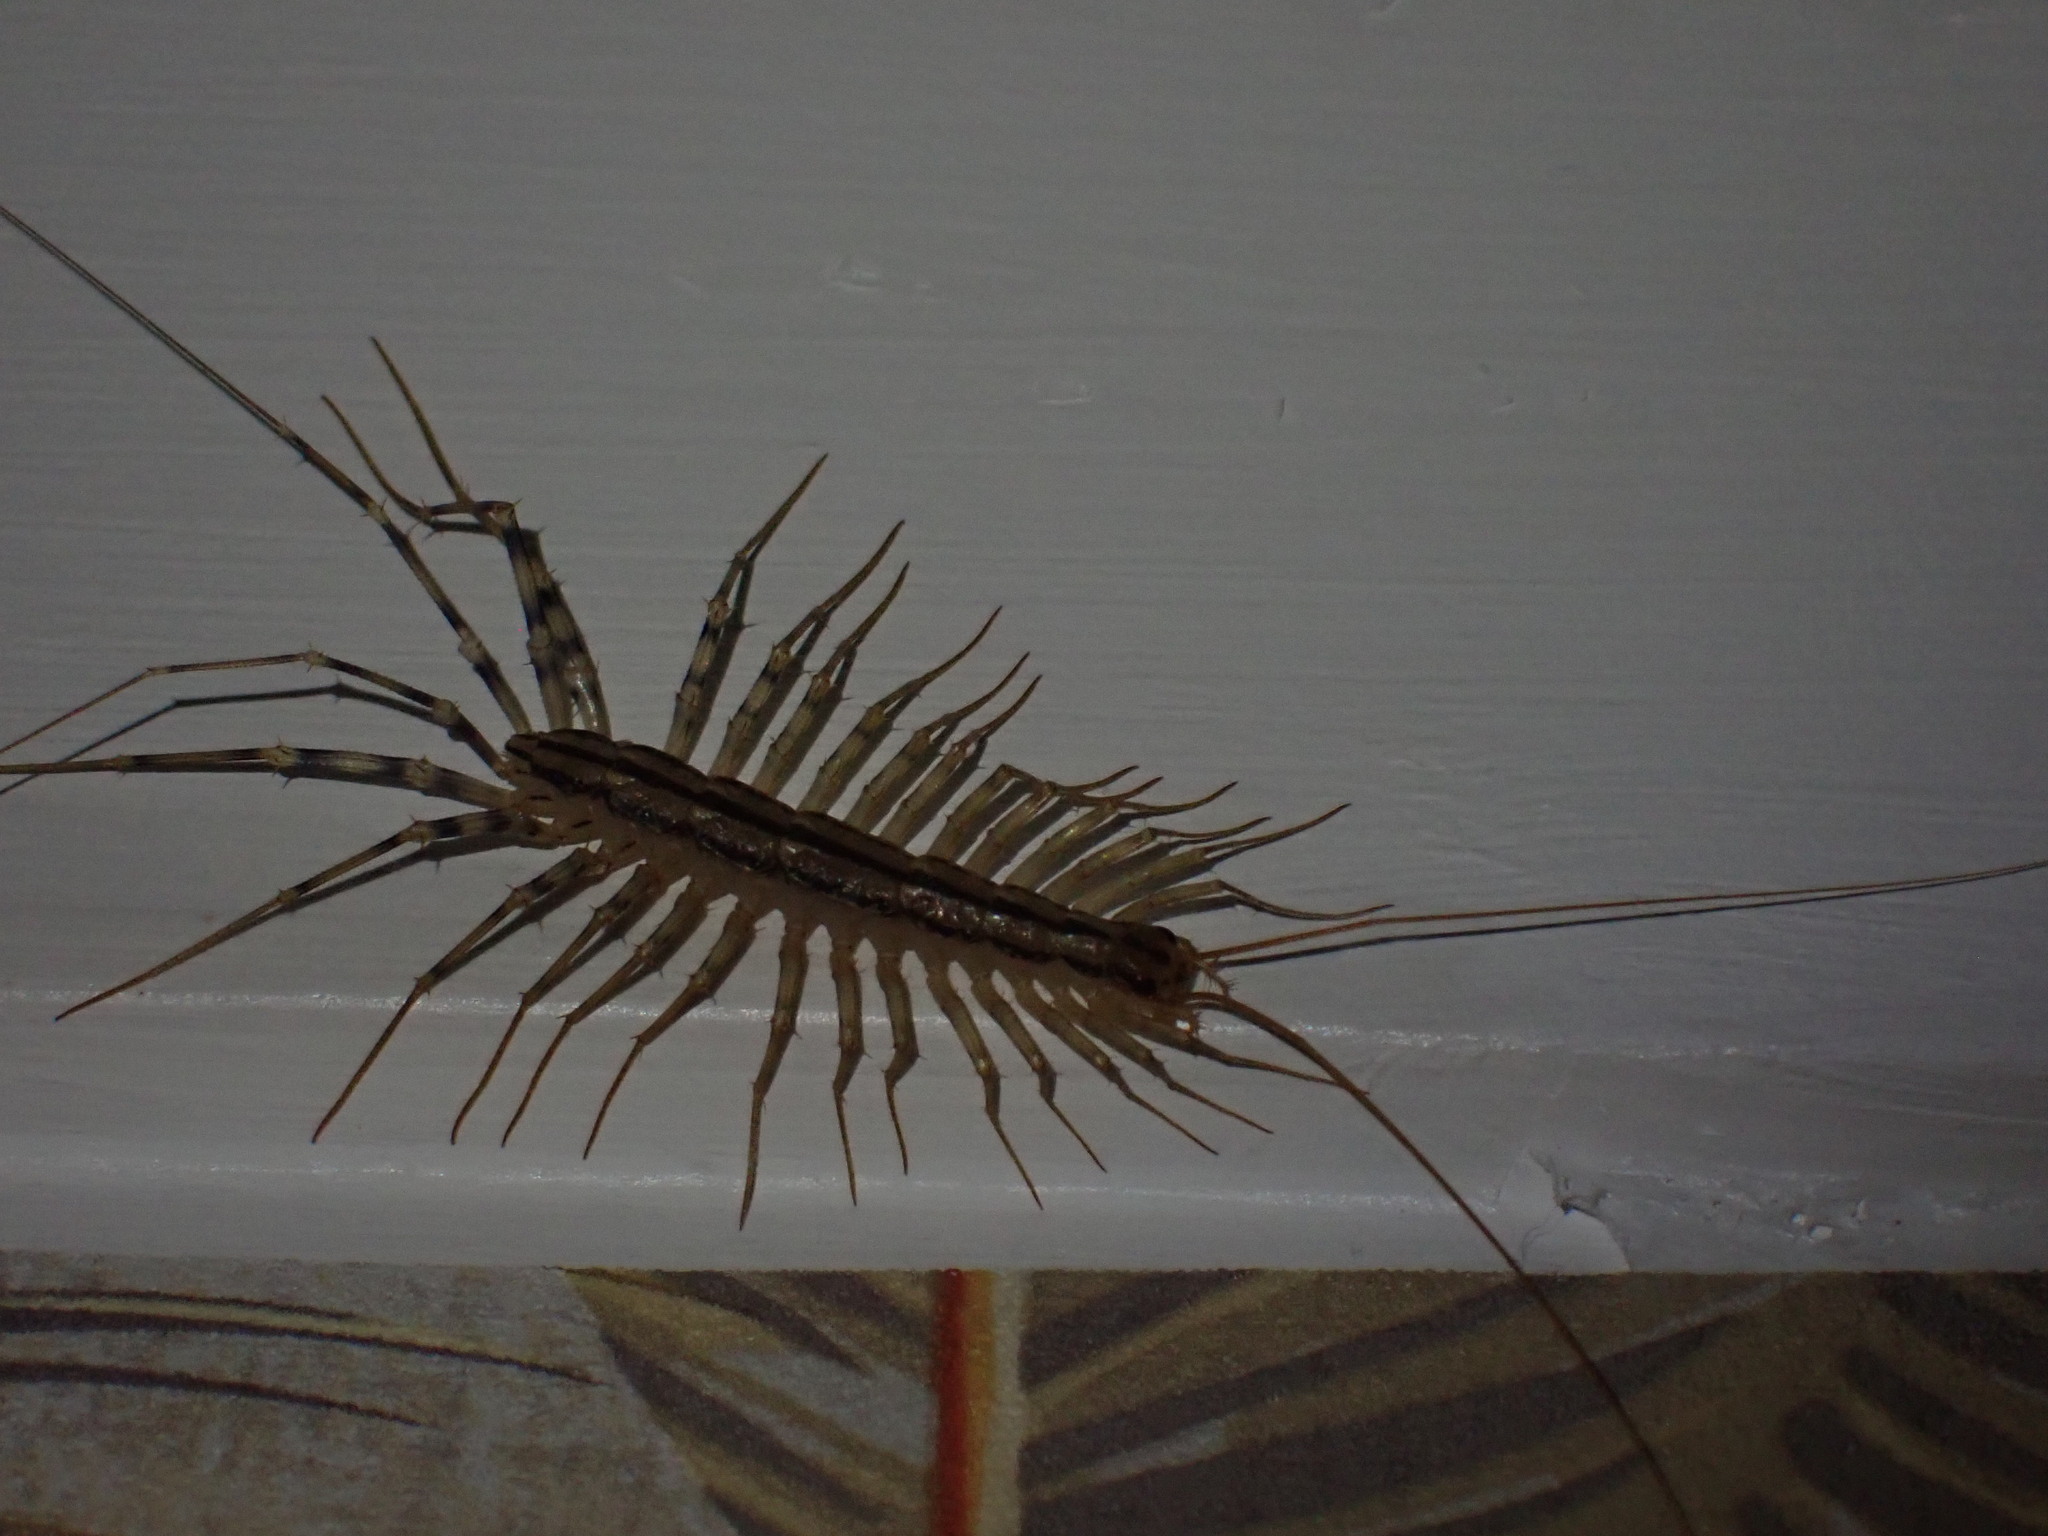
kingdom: Animalia
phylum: Arthropoda
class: Chilopoda
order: Scutigeromorpha
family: Scutigeridae
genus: Scutigera
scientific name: Scutigera coleoptrata
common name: House centipede
